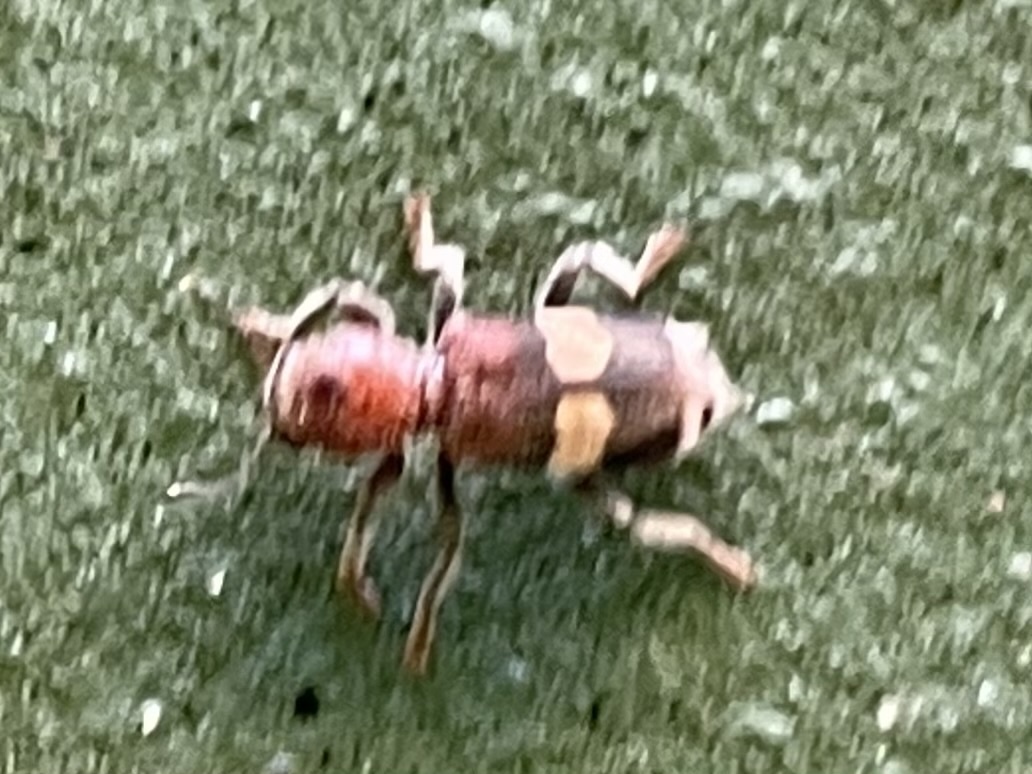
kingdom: Animalia
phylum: Arthropoda
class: Insecta
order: Coleoptera
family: Cleridae
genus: Enoclerus
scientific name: Enoclerus quadrisignatus
